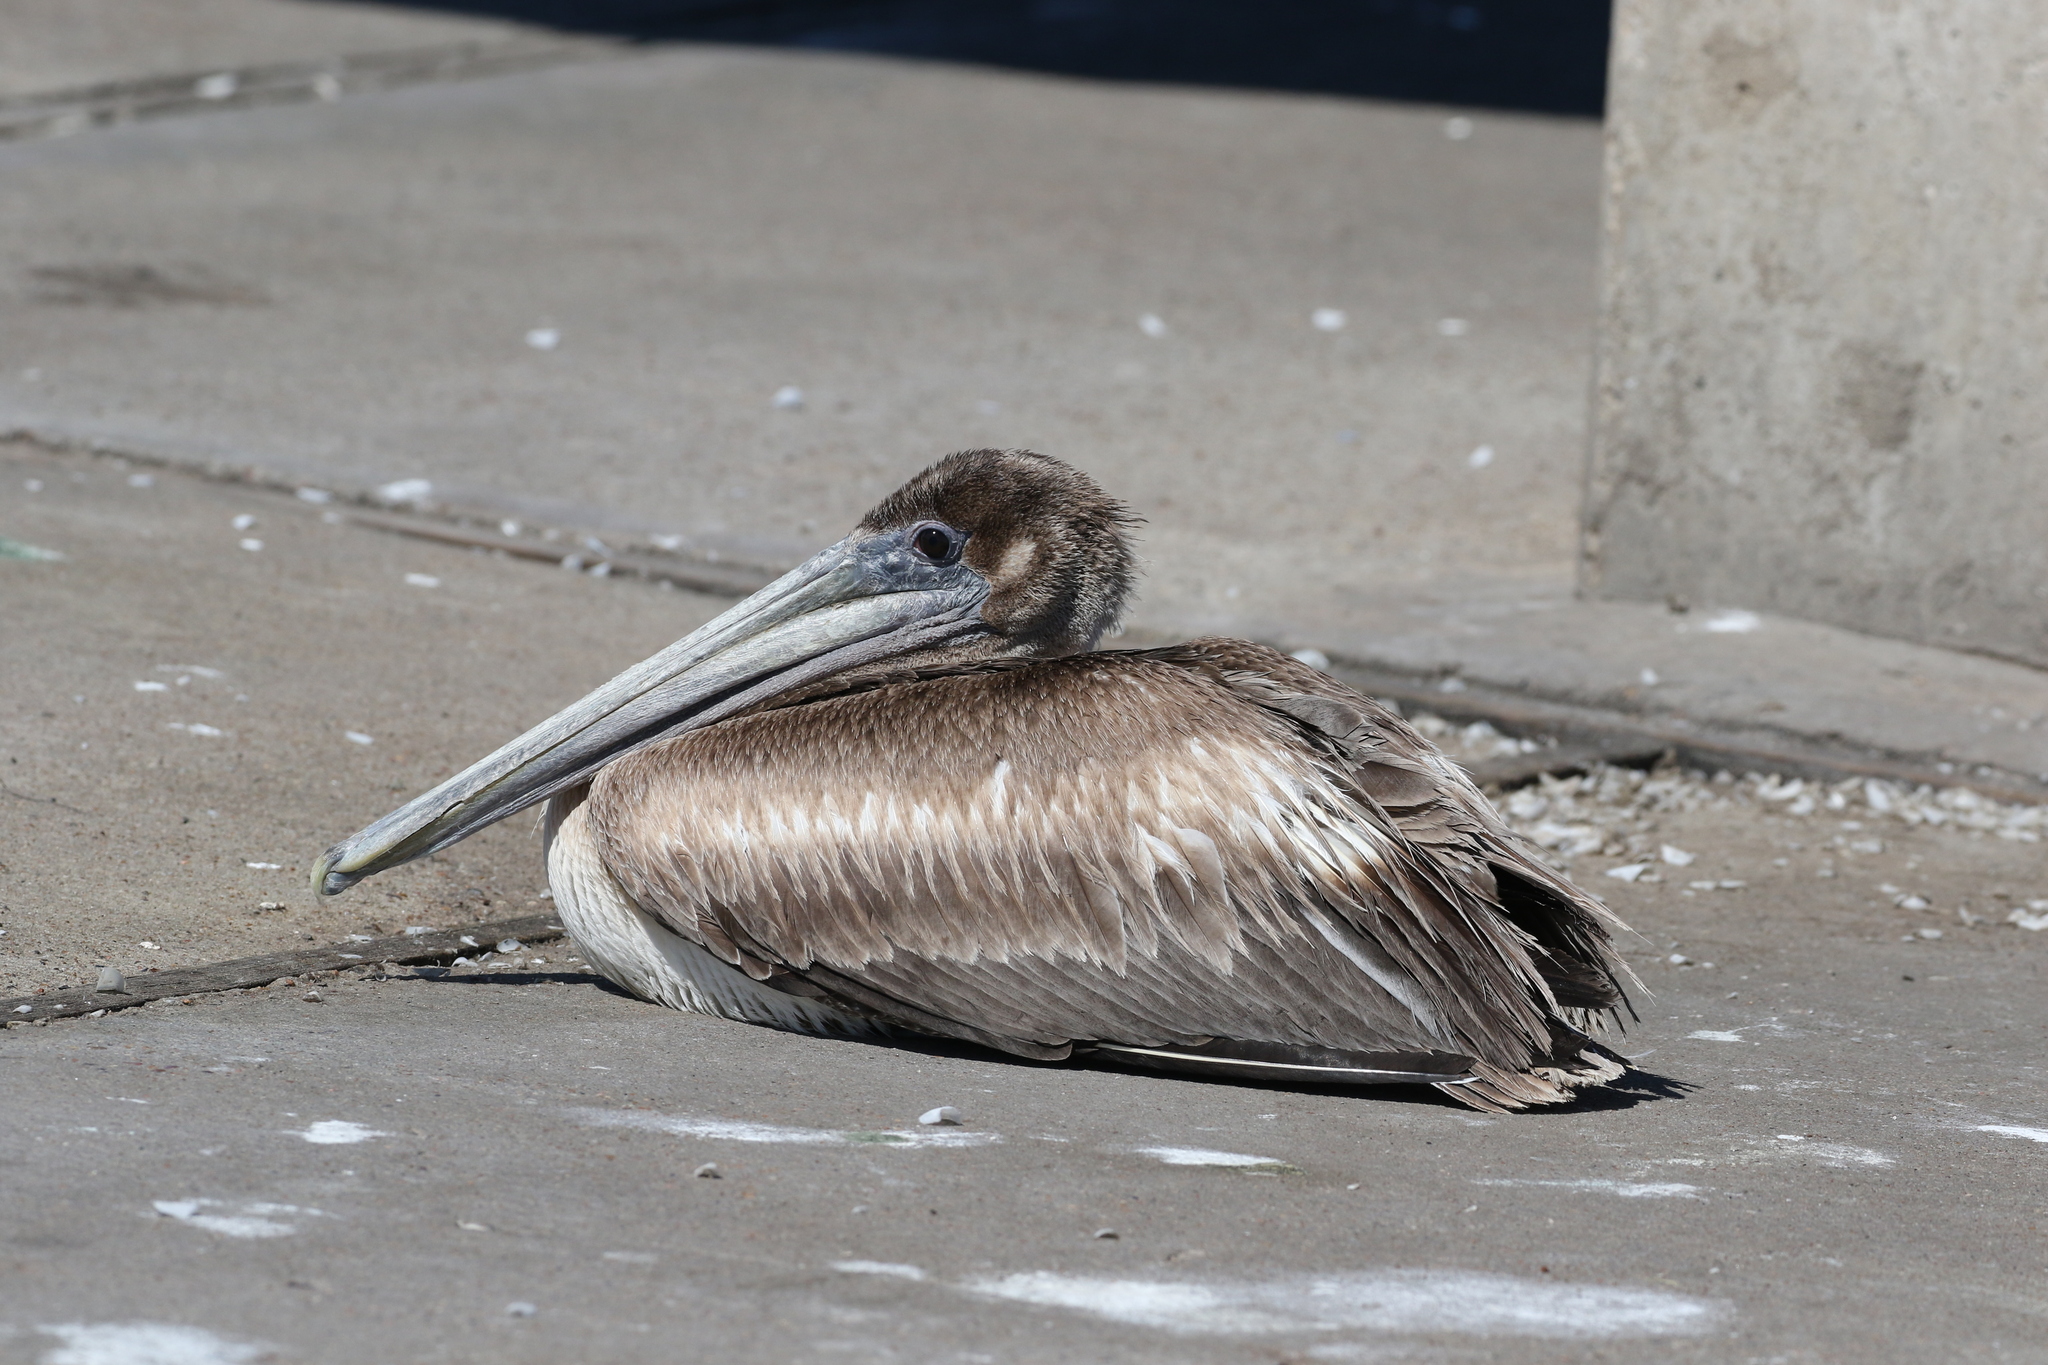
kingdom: Animalia
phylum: Chordata
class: Aves
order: Pelecaniformes
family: Pelecanidae
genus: Pelecanus
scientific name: Pelecanus occidentalis
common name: Brown pelican
